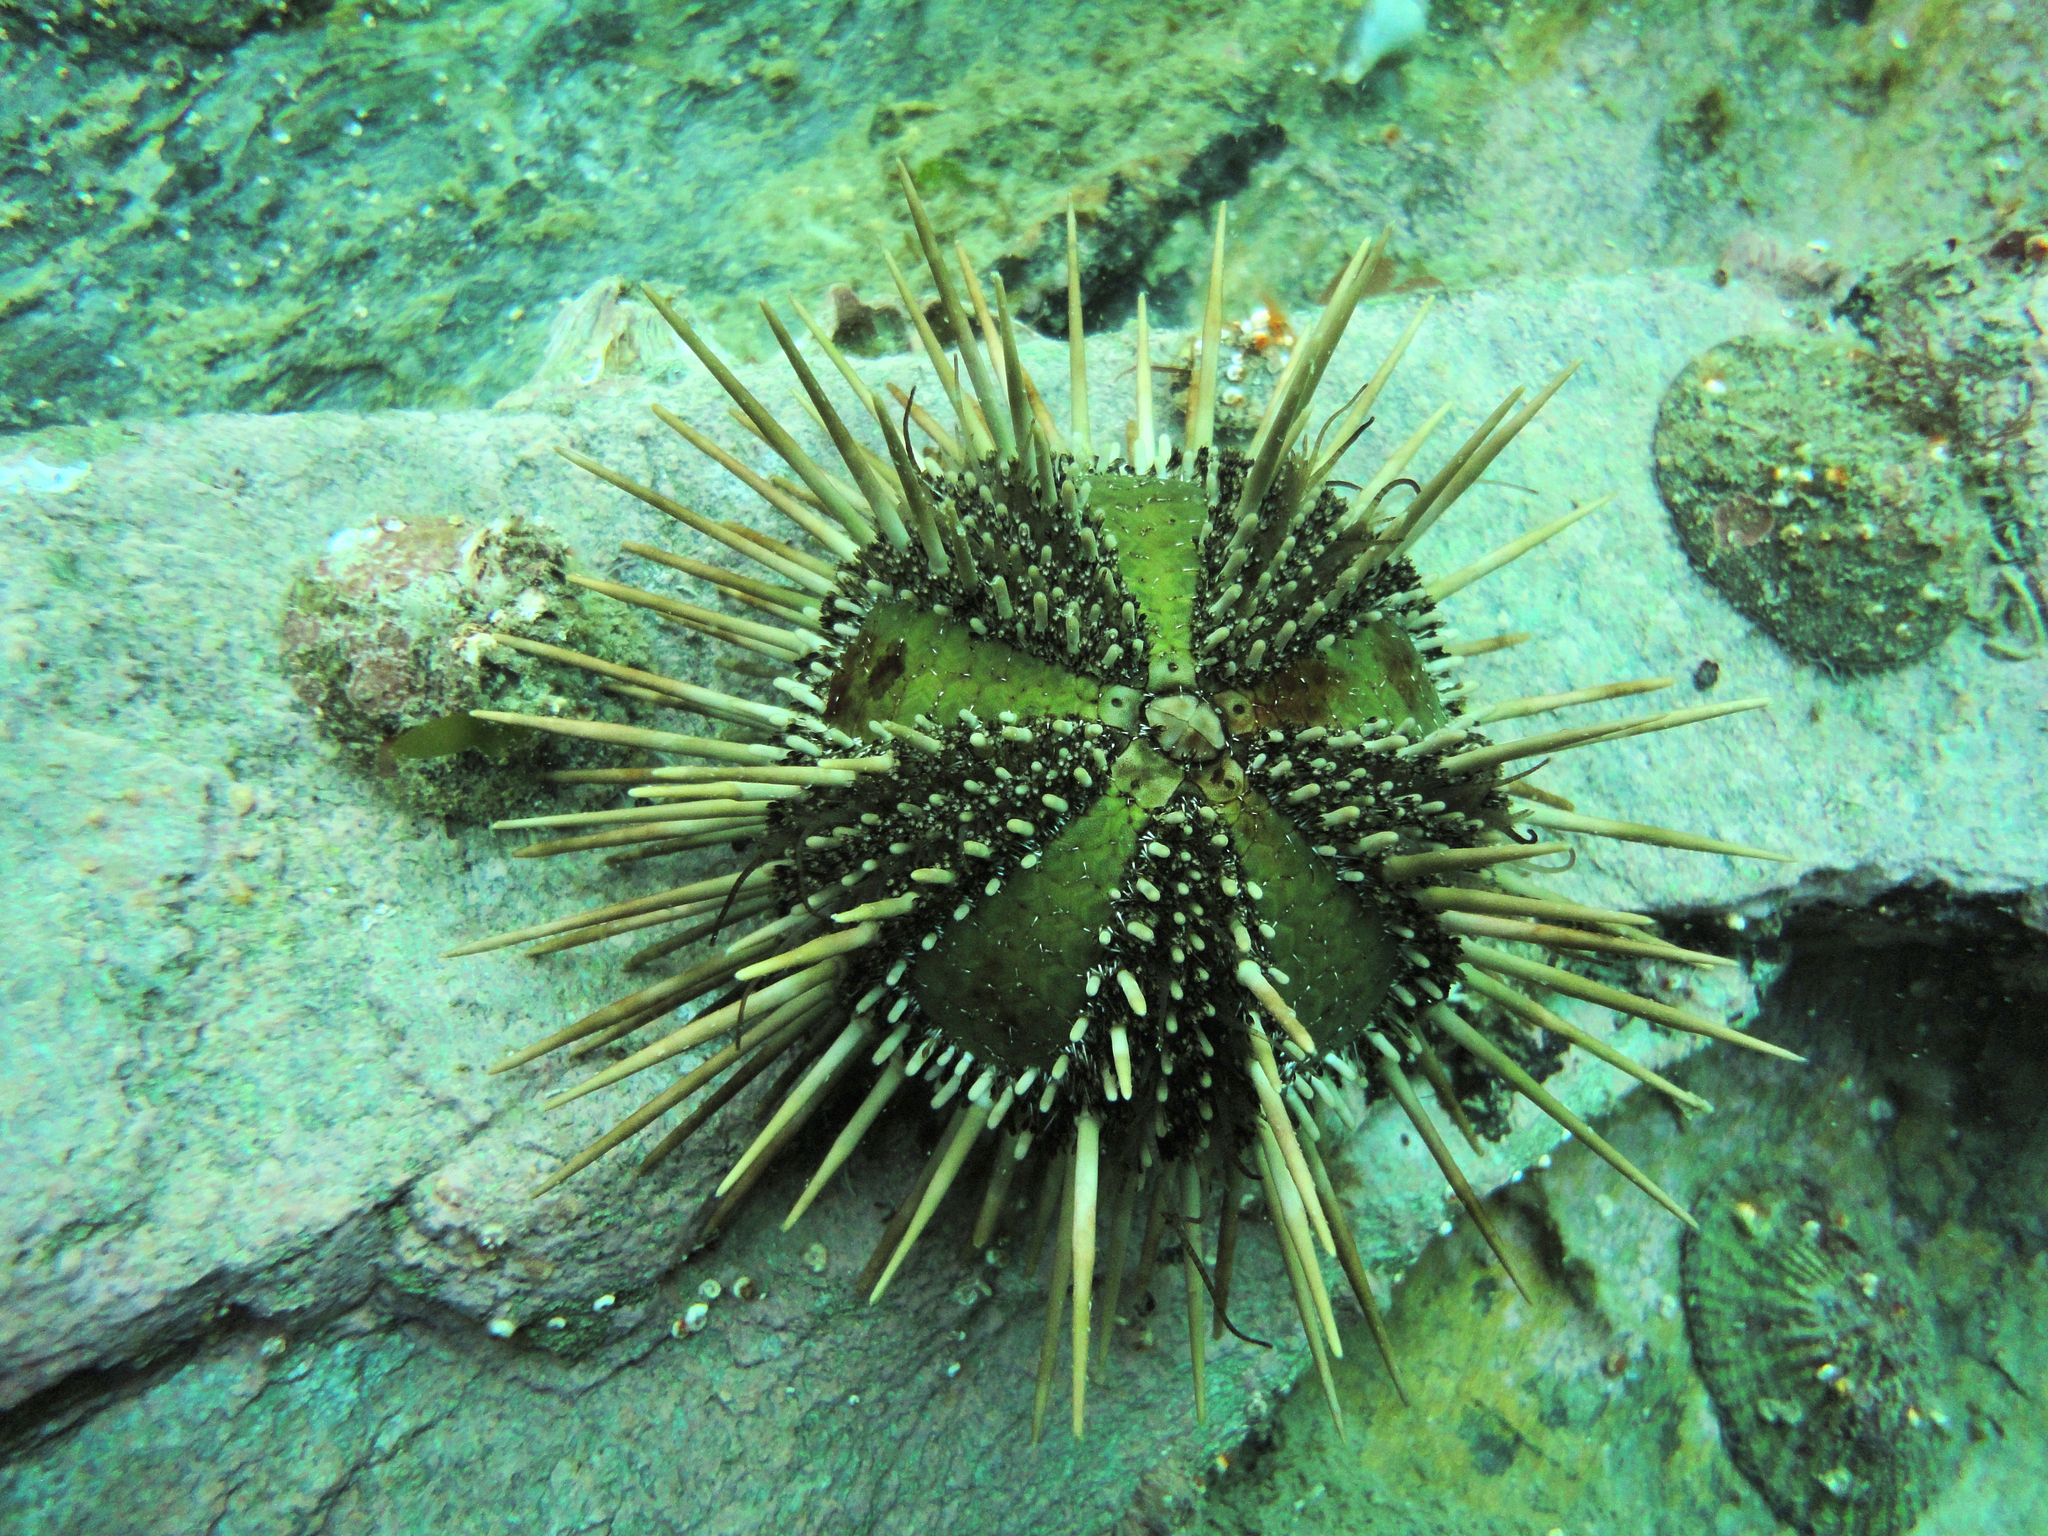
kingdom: Animalia
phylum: Echinodermata
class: Echinoidea
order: Arbacioida
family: Arbaciidae
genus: Arbacia
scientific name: Arbacia dufresnii
